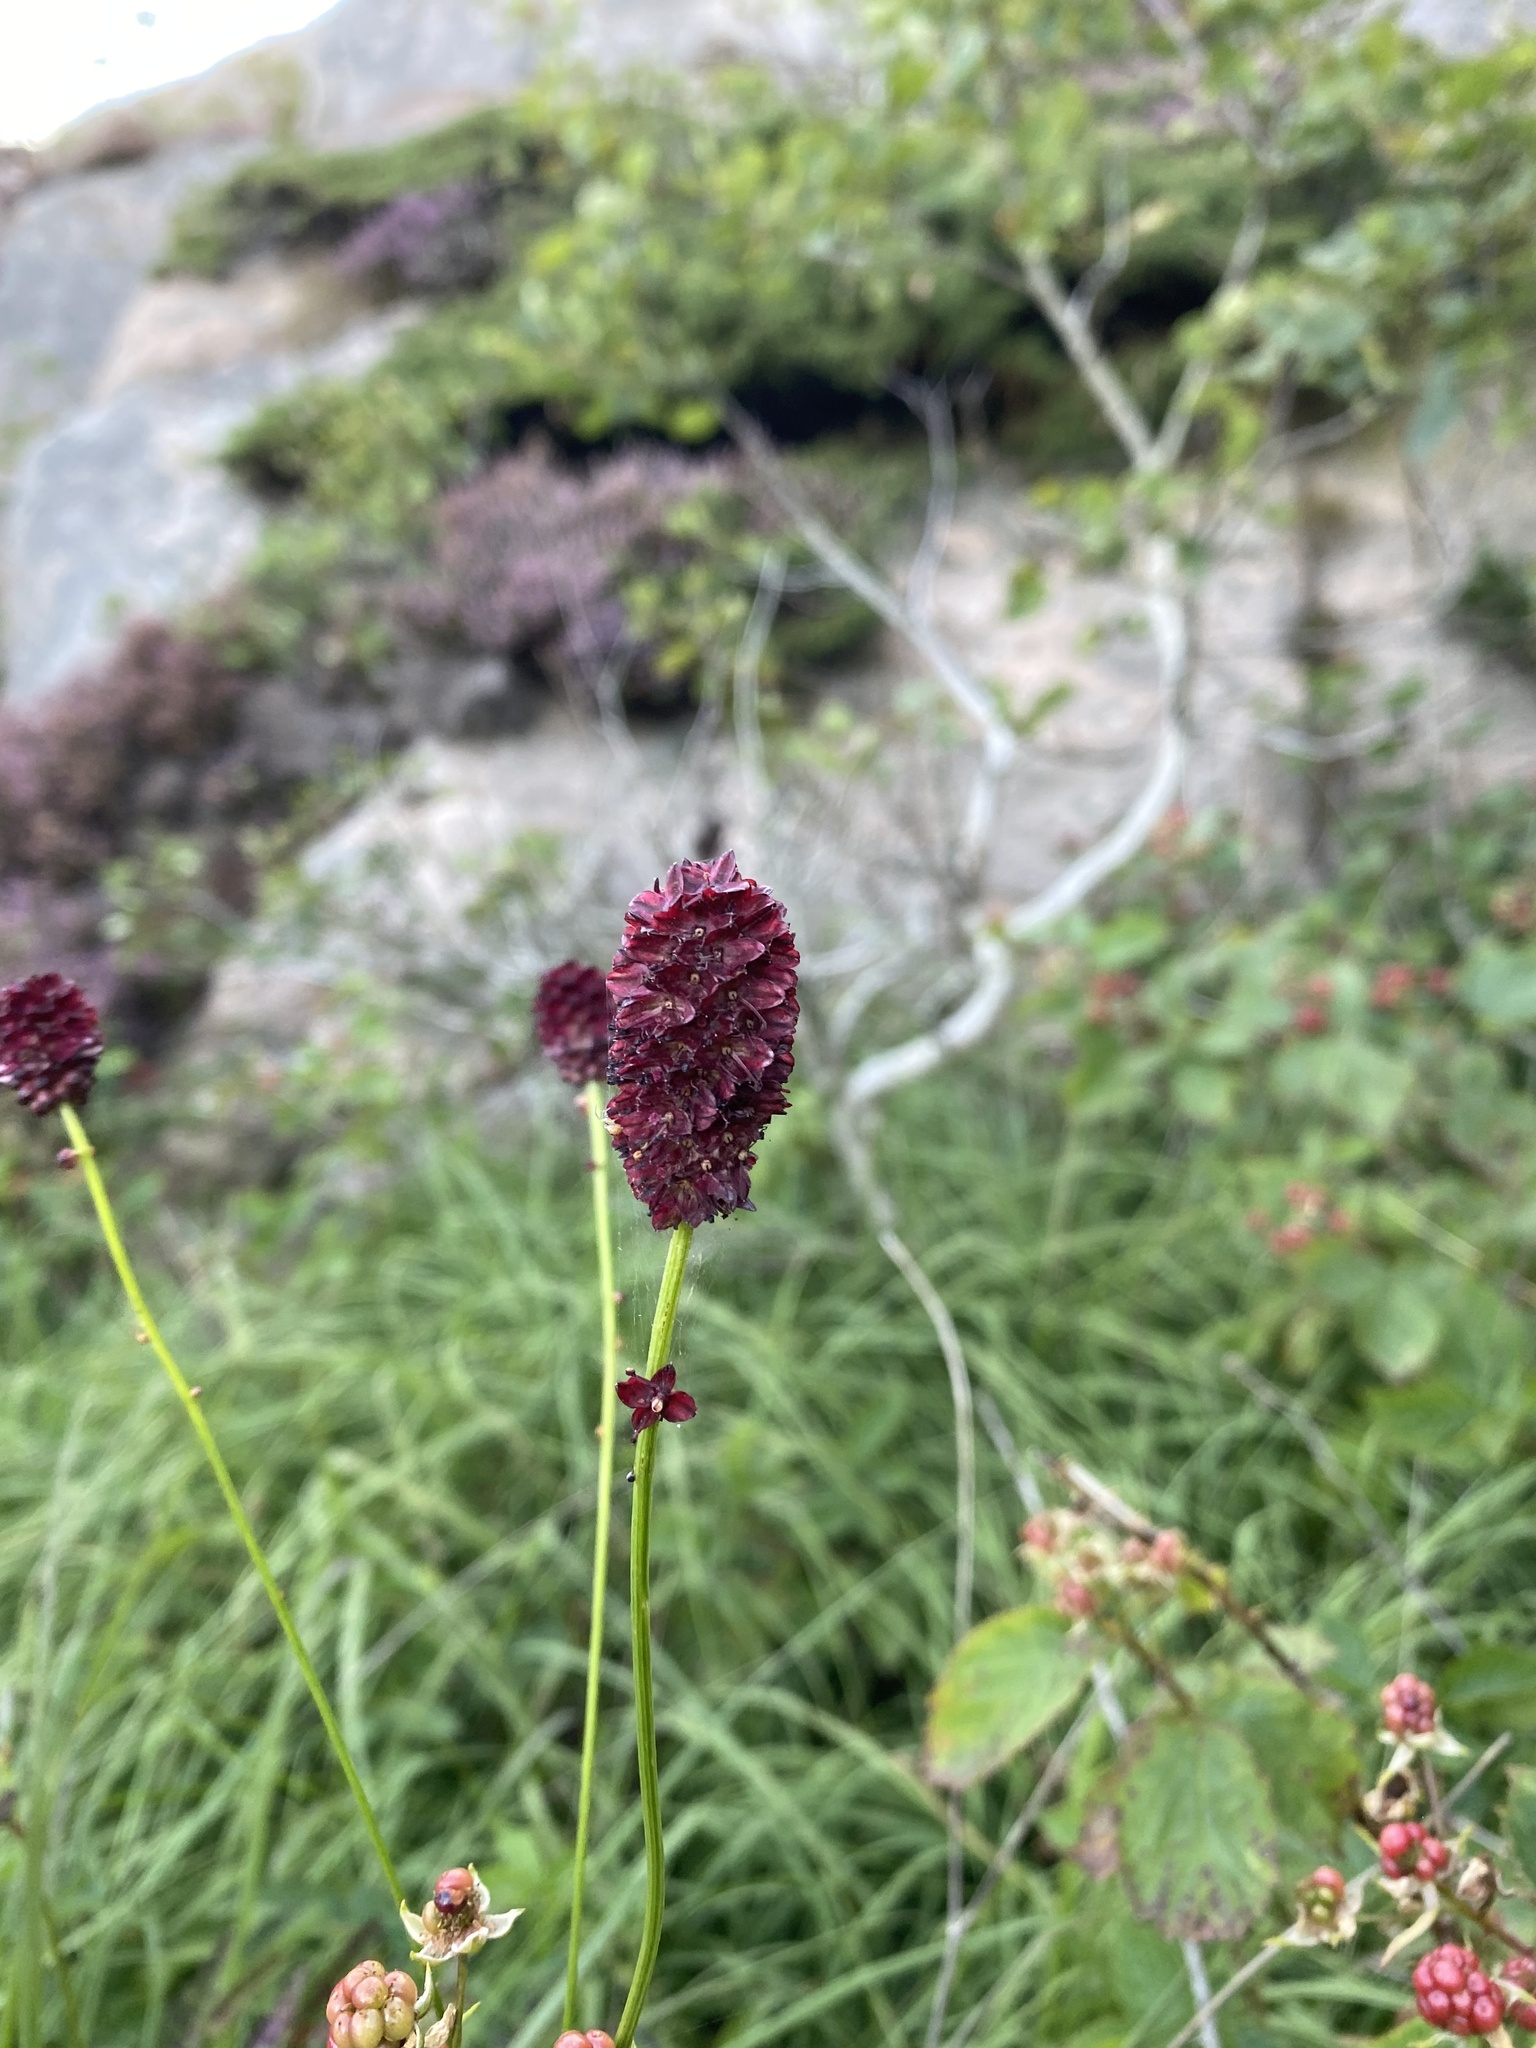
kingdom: Plantae
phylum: Tracheophyta
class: Magnoliopsida
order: Rosales
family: Rosaceae
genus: Sanguisorba
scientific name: Sanguisorba officinalis
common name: Great burnet
